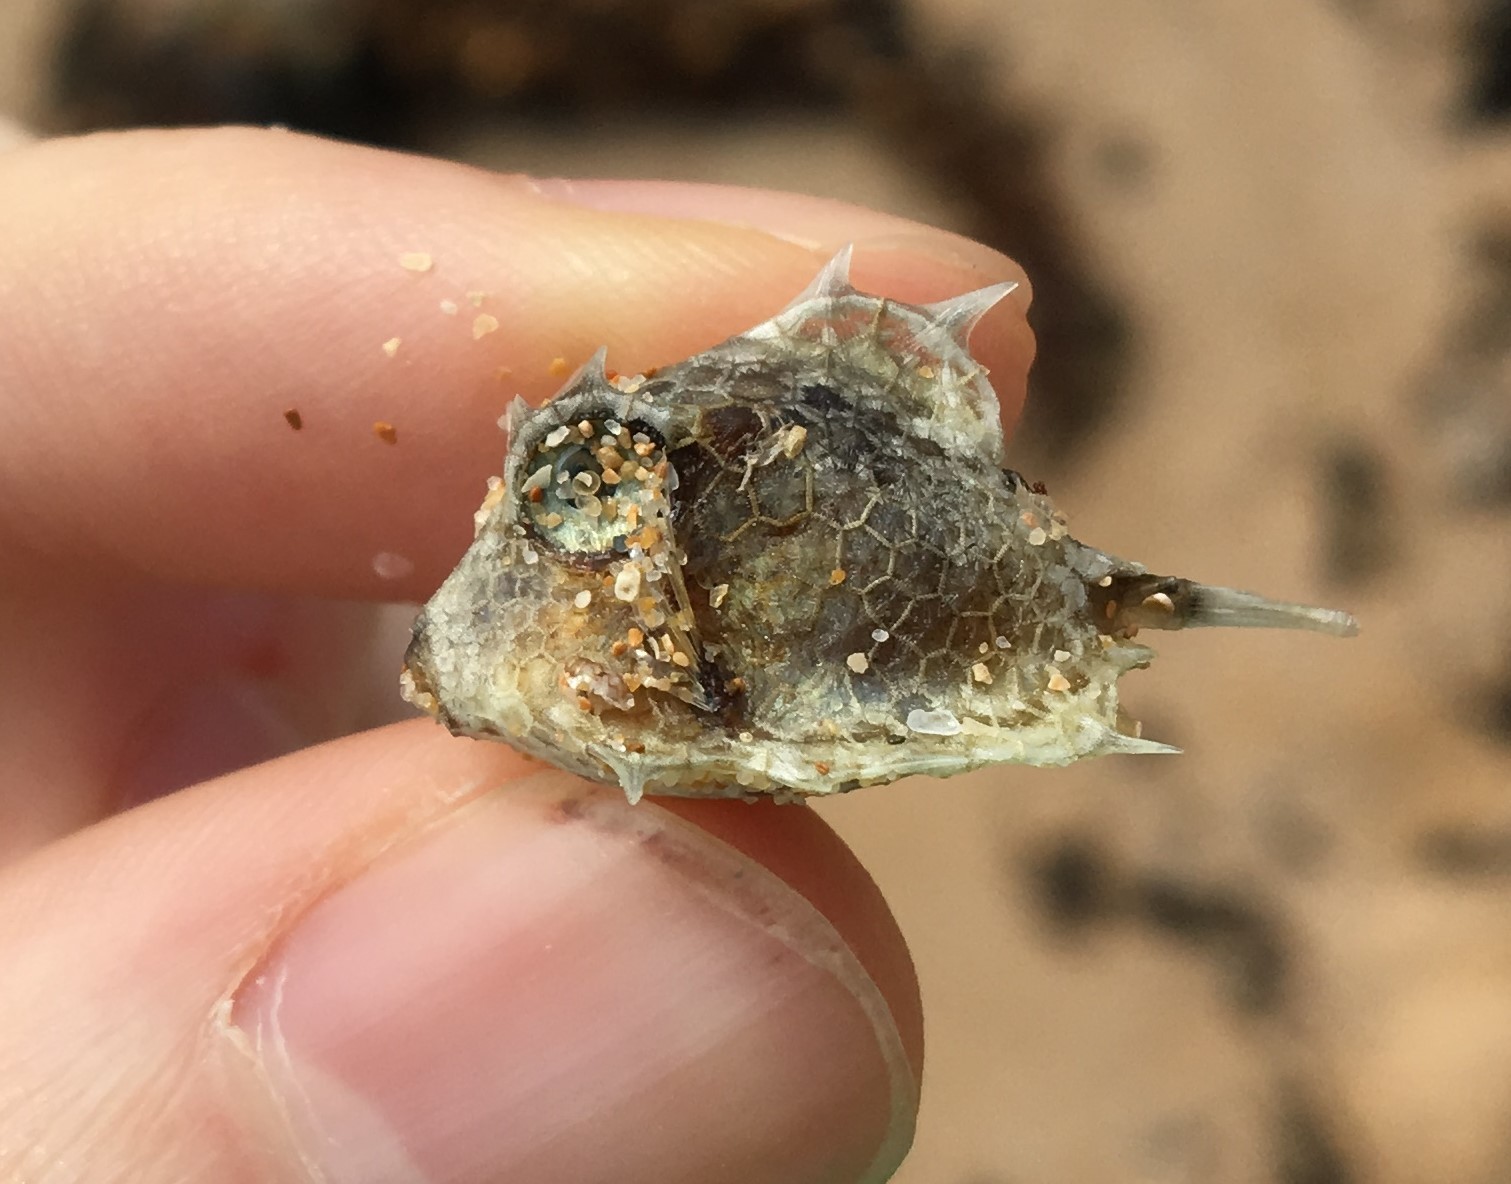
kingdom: Animalia
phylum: Chordata
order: Tetraodontiformes
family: Ostraciidae
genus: Tetrosomus
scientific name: Tetrosomus reipublicae
